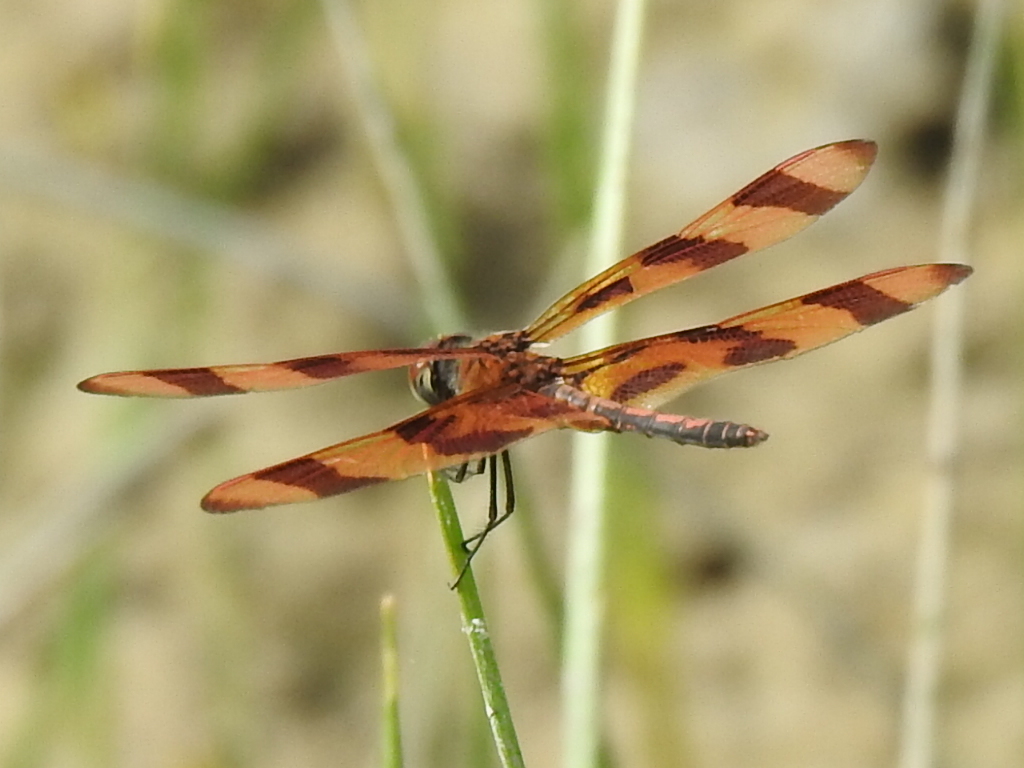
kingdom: Animalia
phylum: Arthropoda
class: Insecta
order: Odonata
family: Libellulidae
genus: Celithemis
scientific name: Celithemis eponina
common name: Halloween pennant
